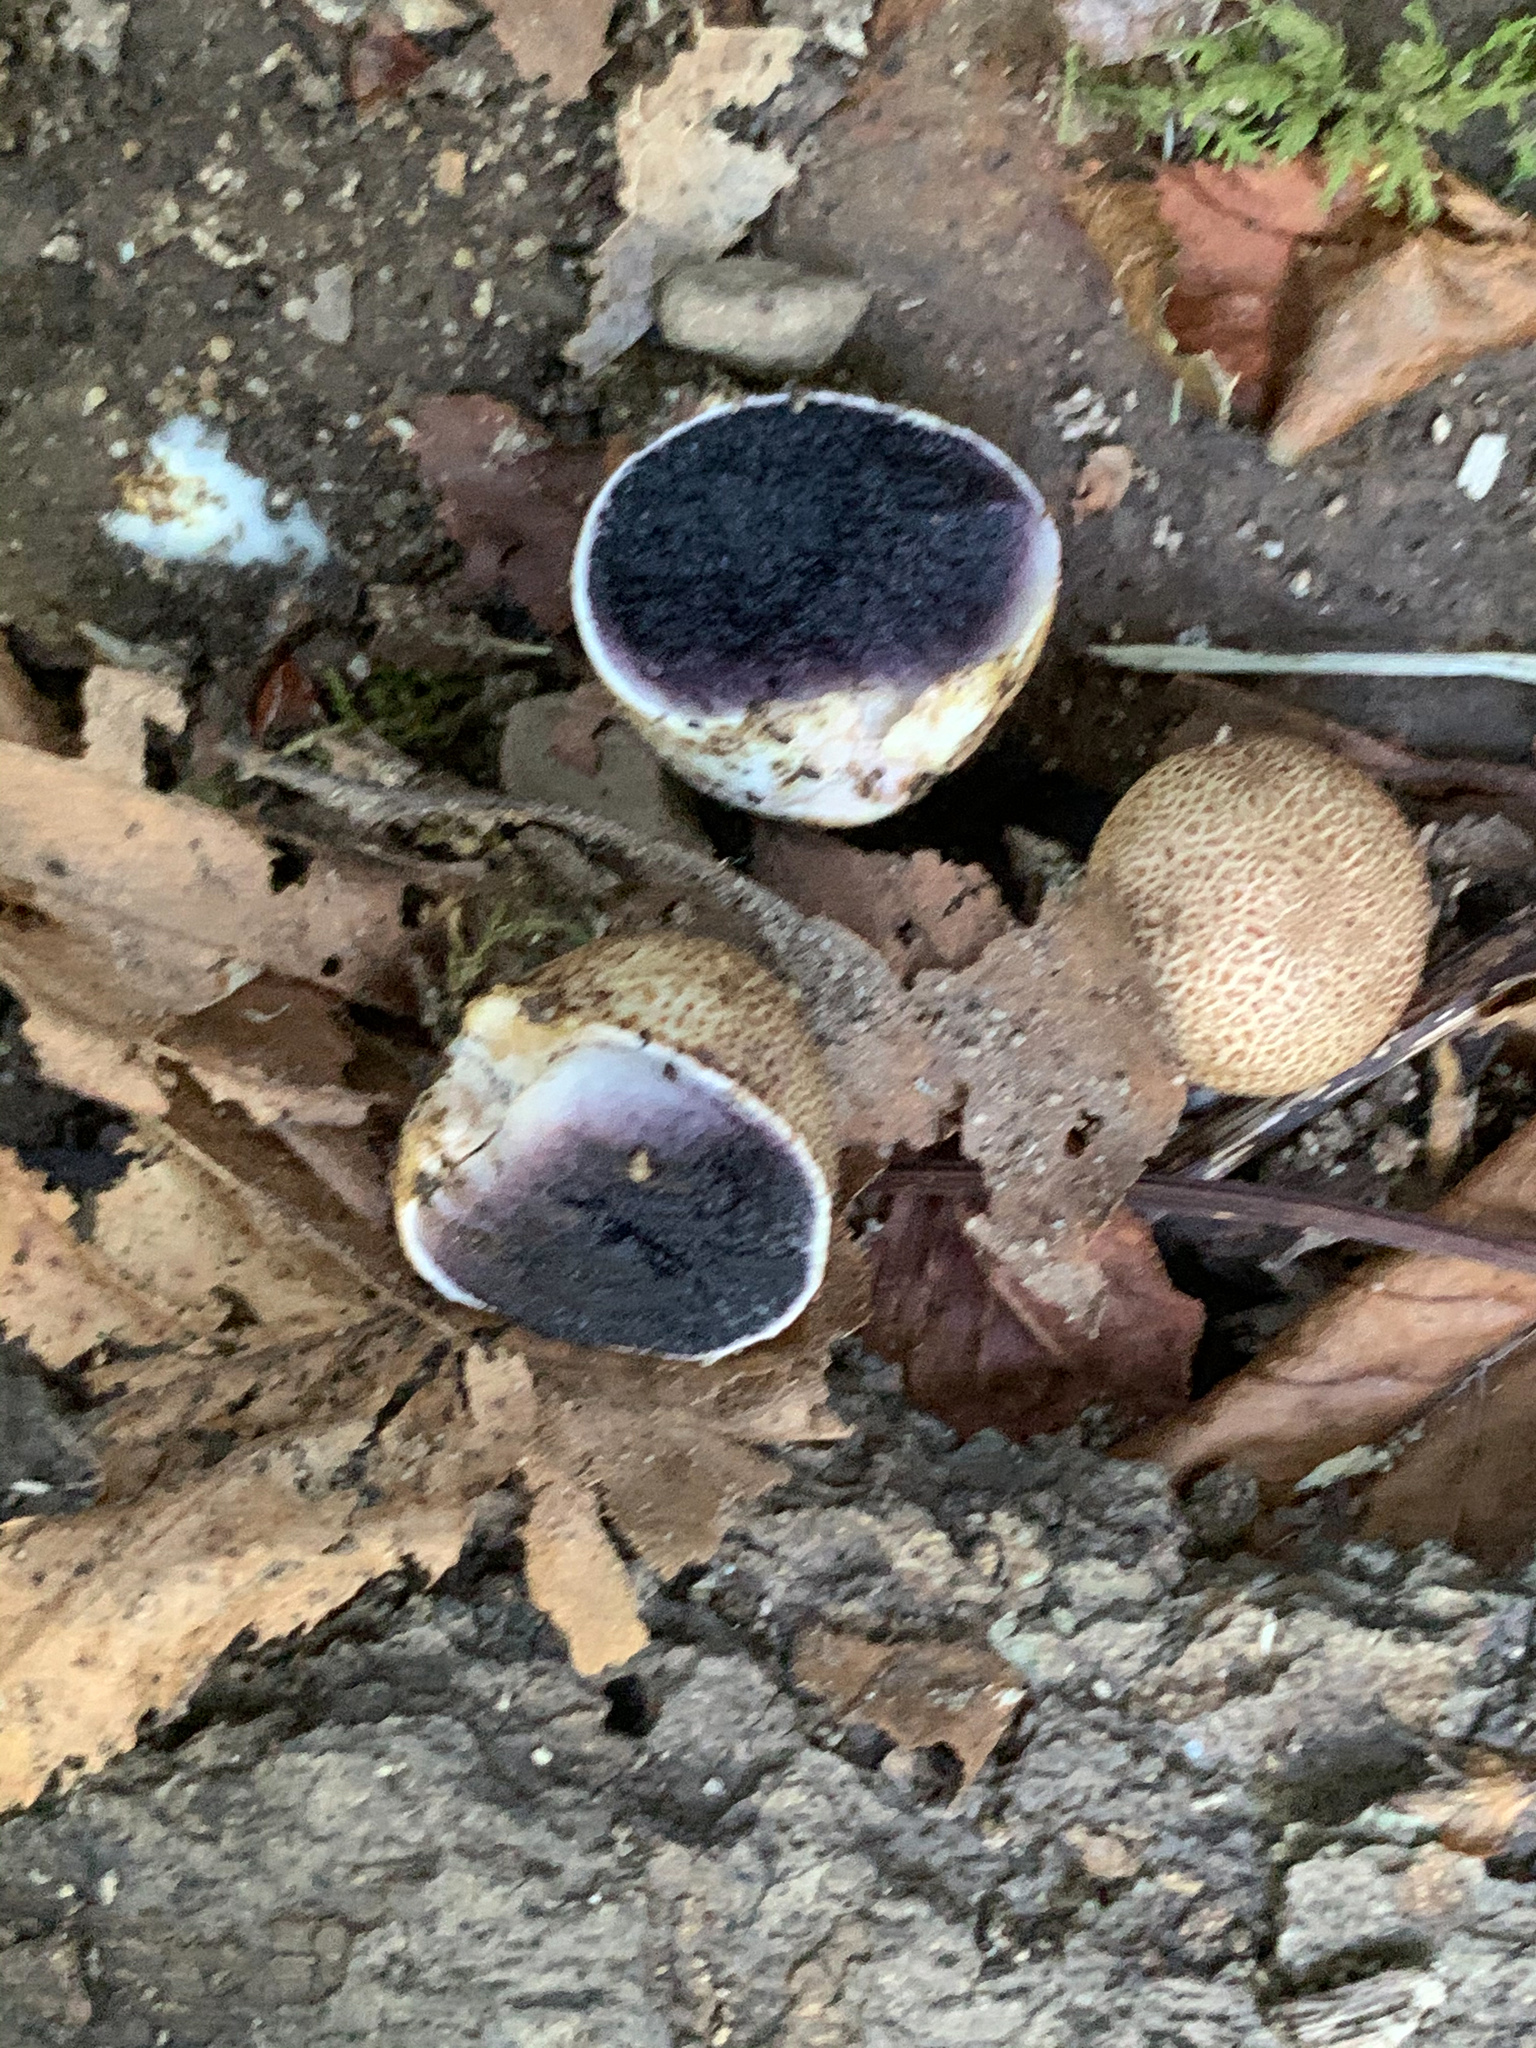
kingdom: Fungi
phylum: Basidiomycota
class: Agaricomycetes
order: Boletales
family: Sclerodermataceae
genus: Scleroderma
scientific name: Scleroderma citrinum
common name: Common earthball
